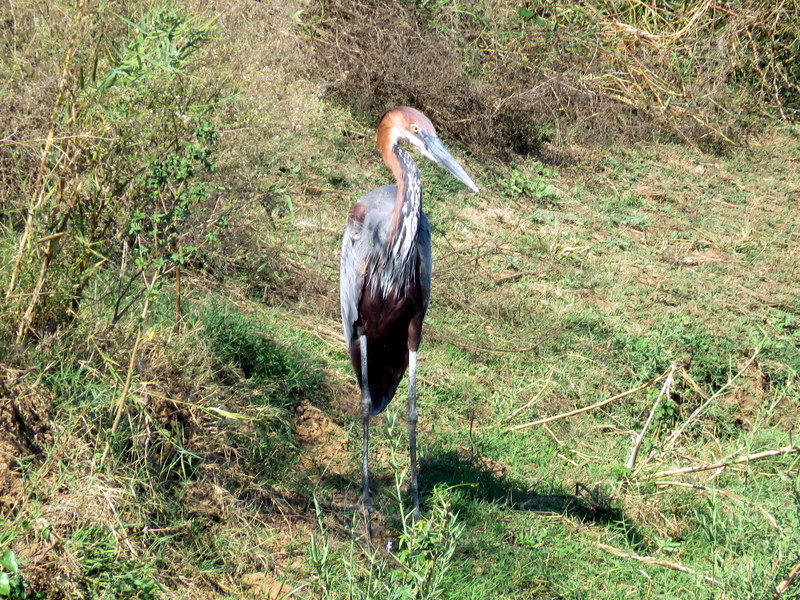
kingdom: Animalia
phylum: Chordata
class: Aves
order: Pelecaniformes
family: Ardeidae
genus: Ardea
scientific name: Ardea goliath
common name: Goliath heron
